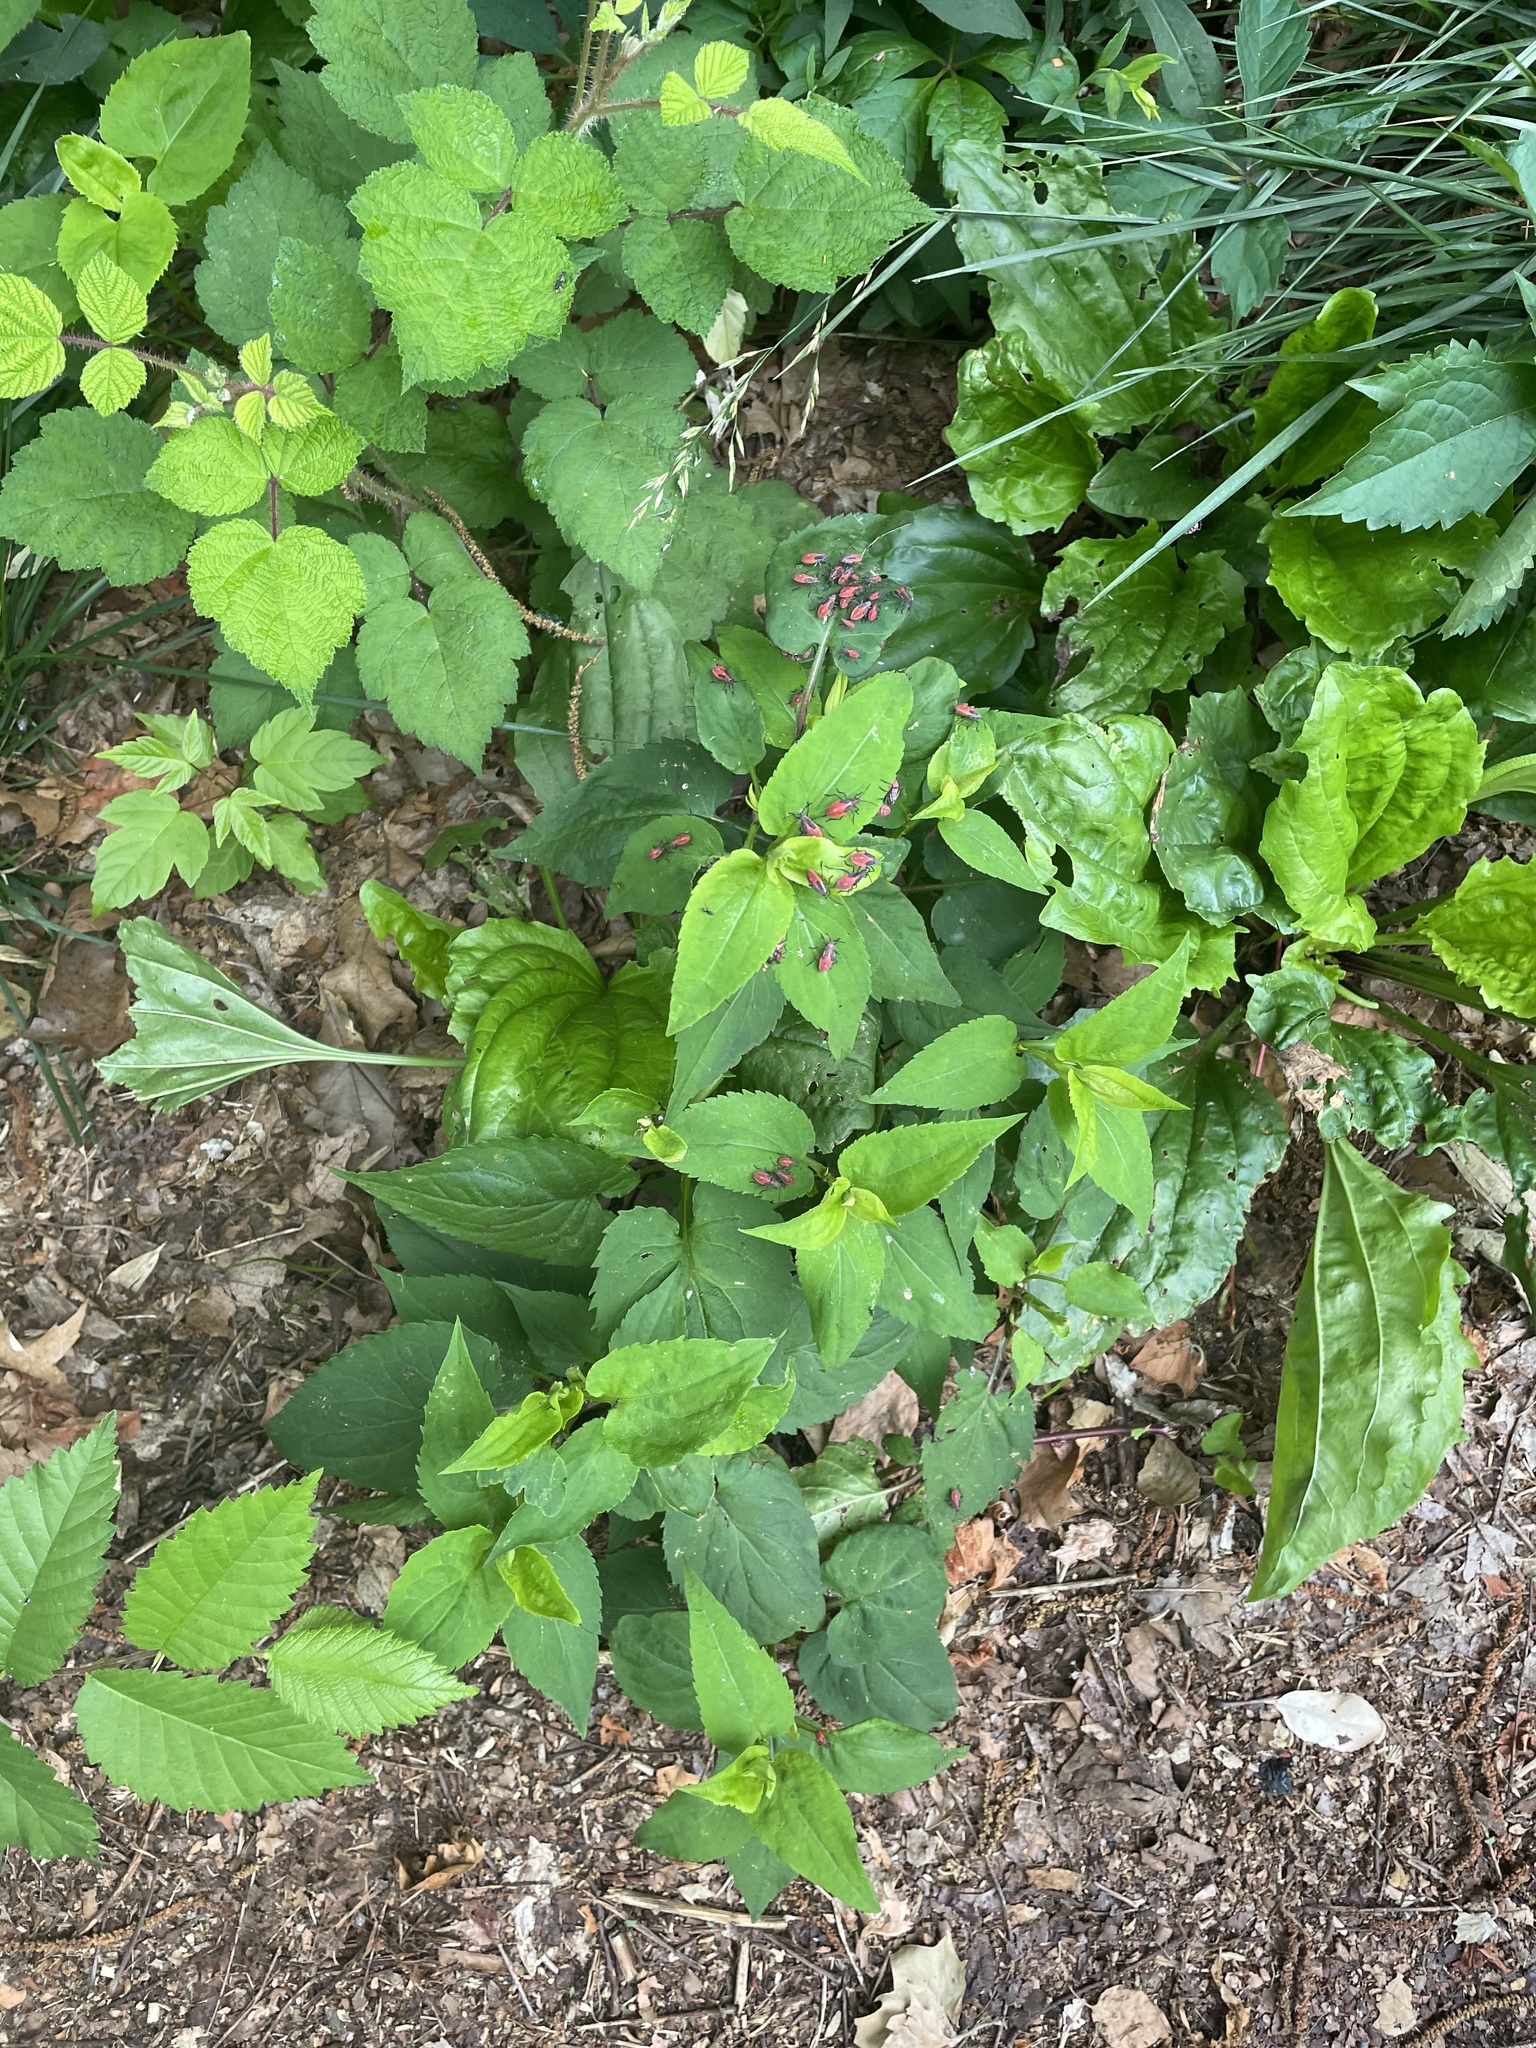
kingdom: Animalia
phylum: Arthropoda
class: Insecta
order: Hemiptera
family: Rhopalidae
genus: Boisea
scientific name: Boisea trivittata
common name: Boxelder bug
